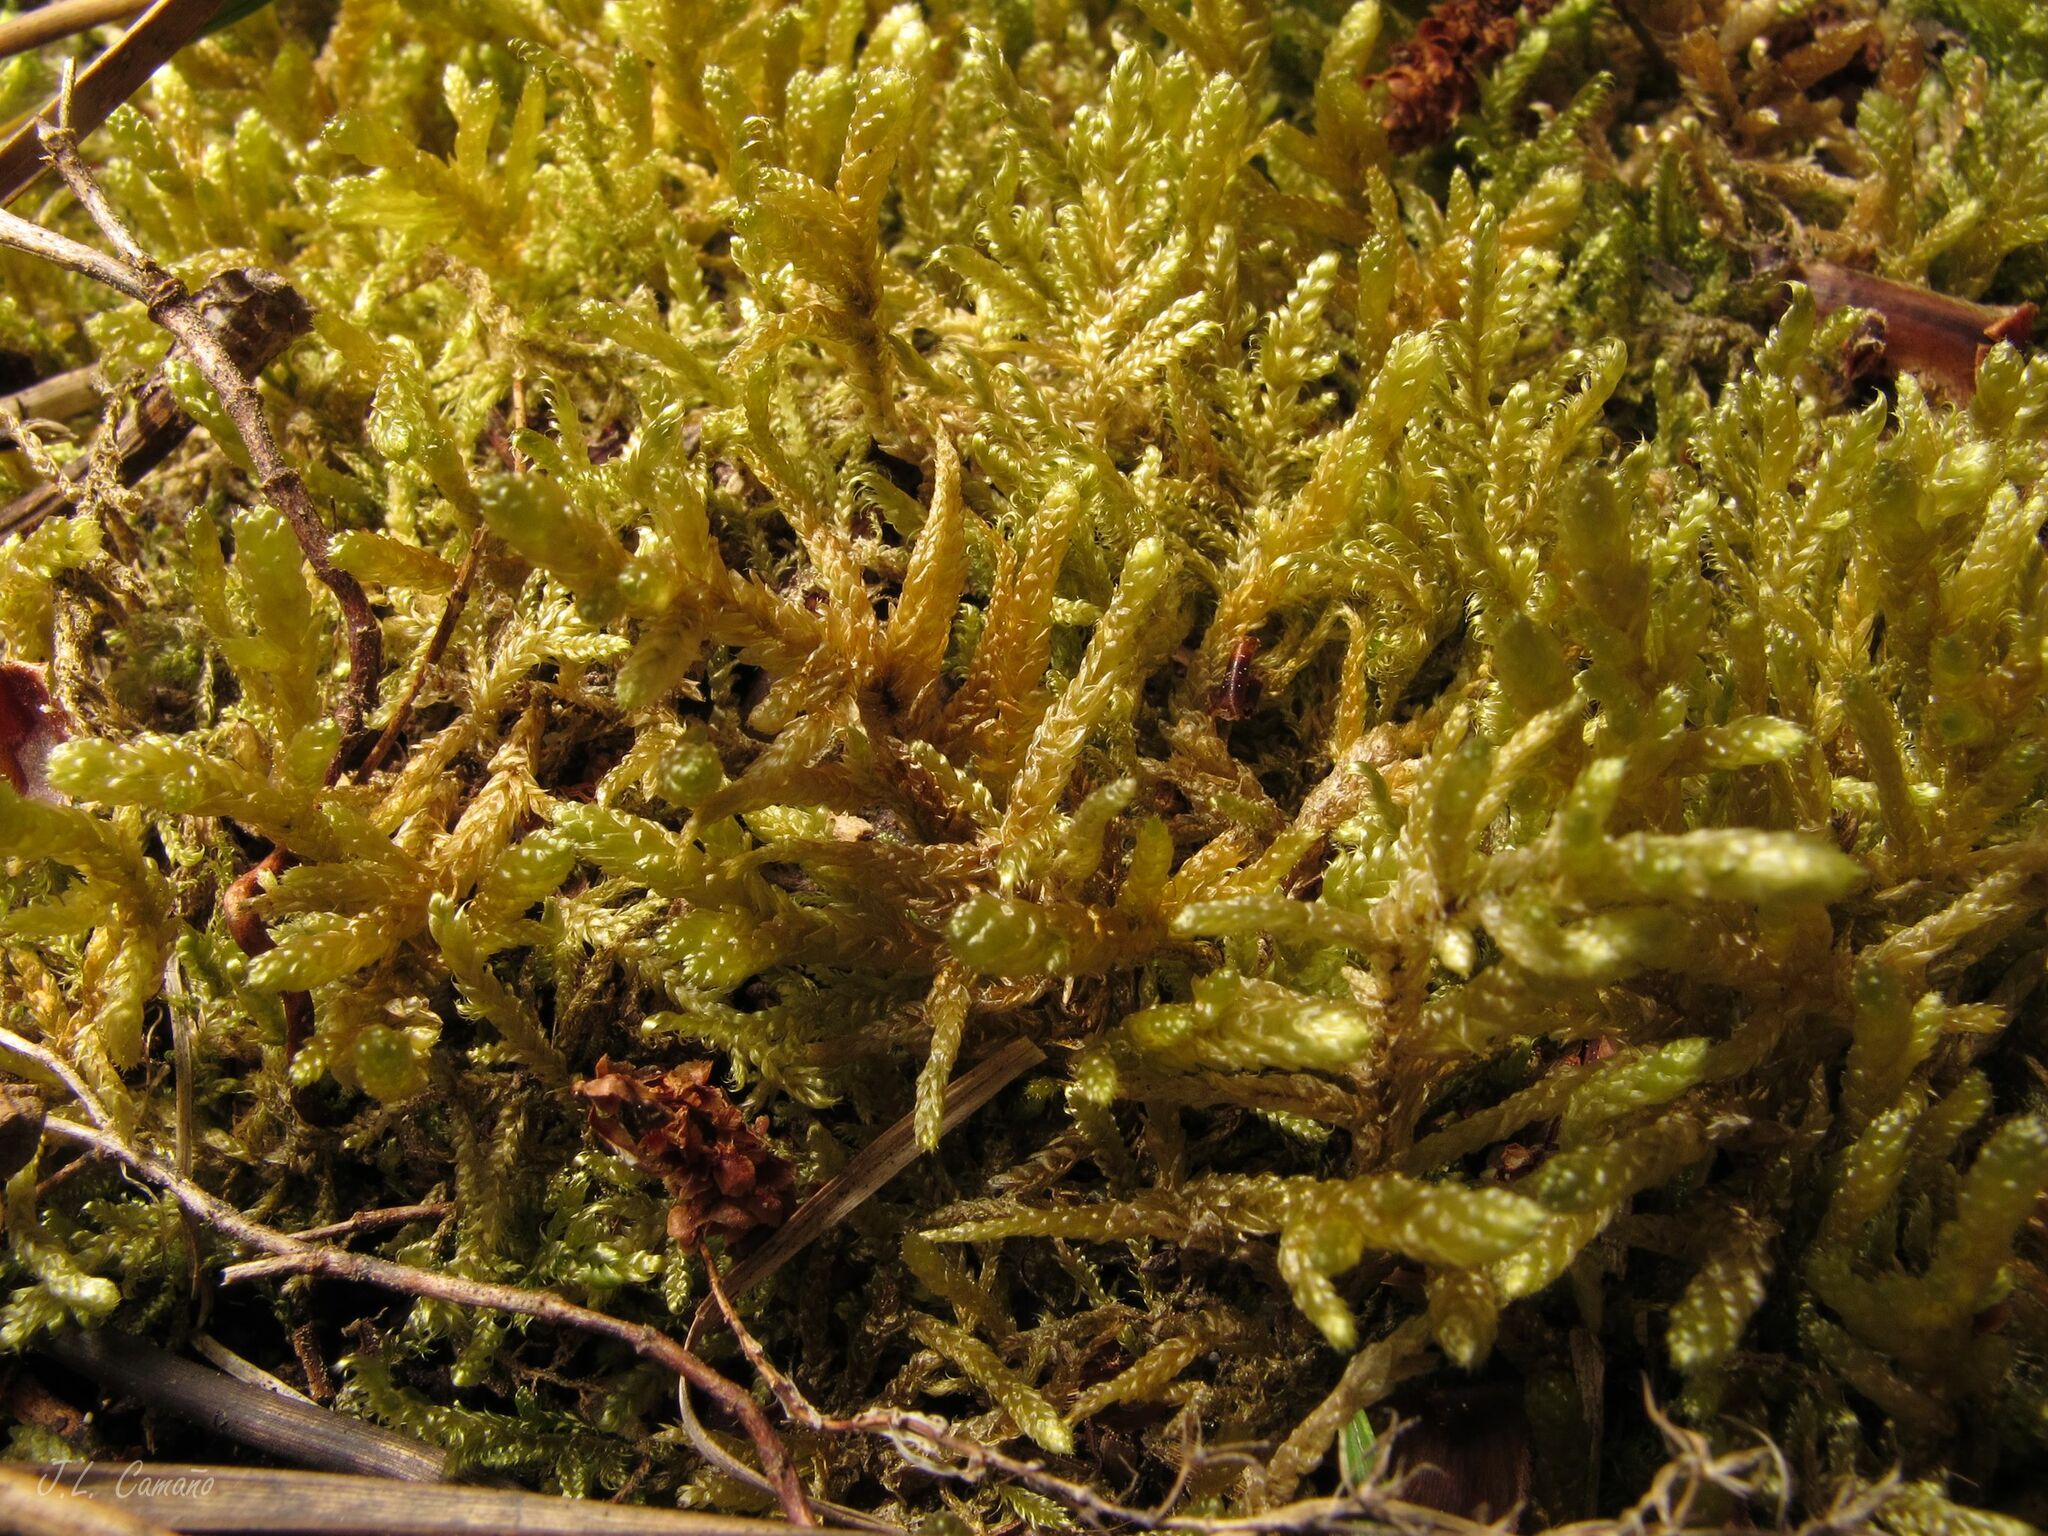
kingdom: Plantae
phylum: Bryophyta
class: Bryopsida
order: Hypnales
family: Hypnaceae
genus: Hypnum
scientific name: Hypnum cupressiforme
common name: Cypress-leaved plait-moss
